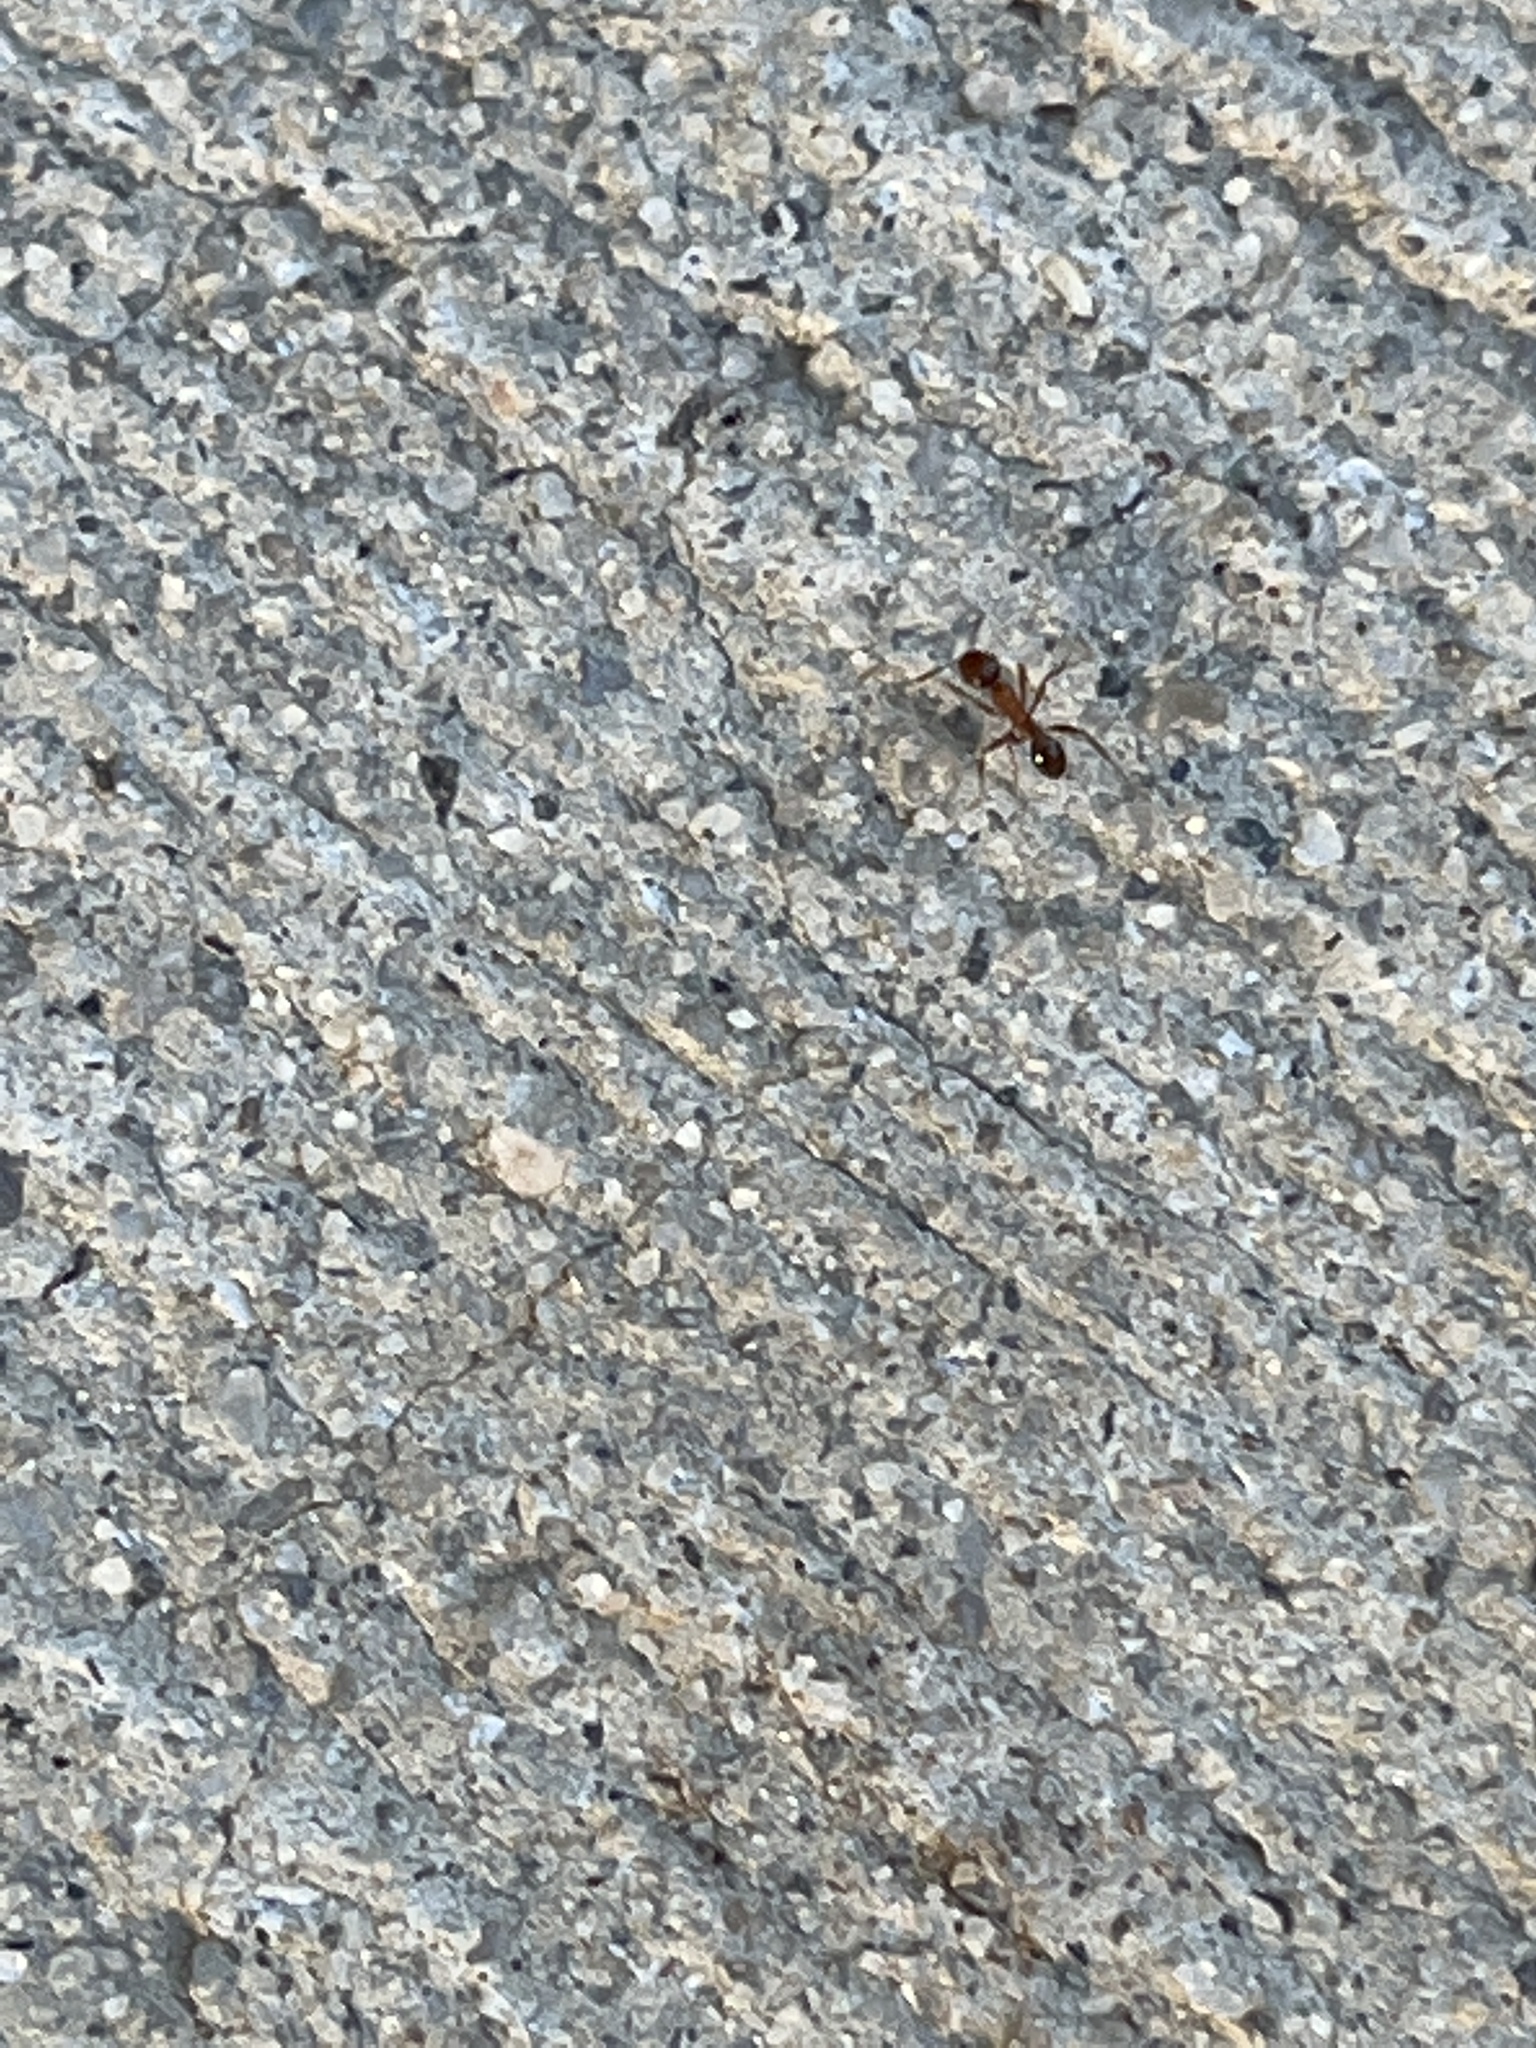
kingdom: Animalia
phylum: Arthropoda
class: Insecta
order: Hymenoptera
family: Formicidae
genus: Pheidole
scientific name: Pheidole dentata
